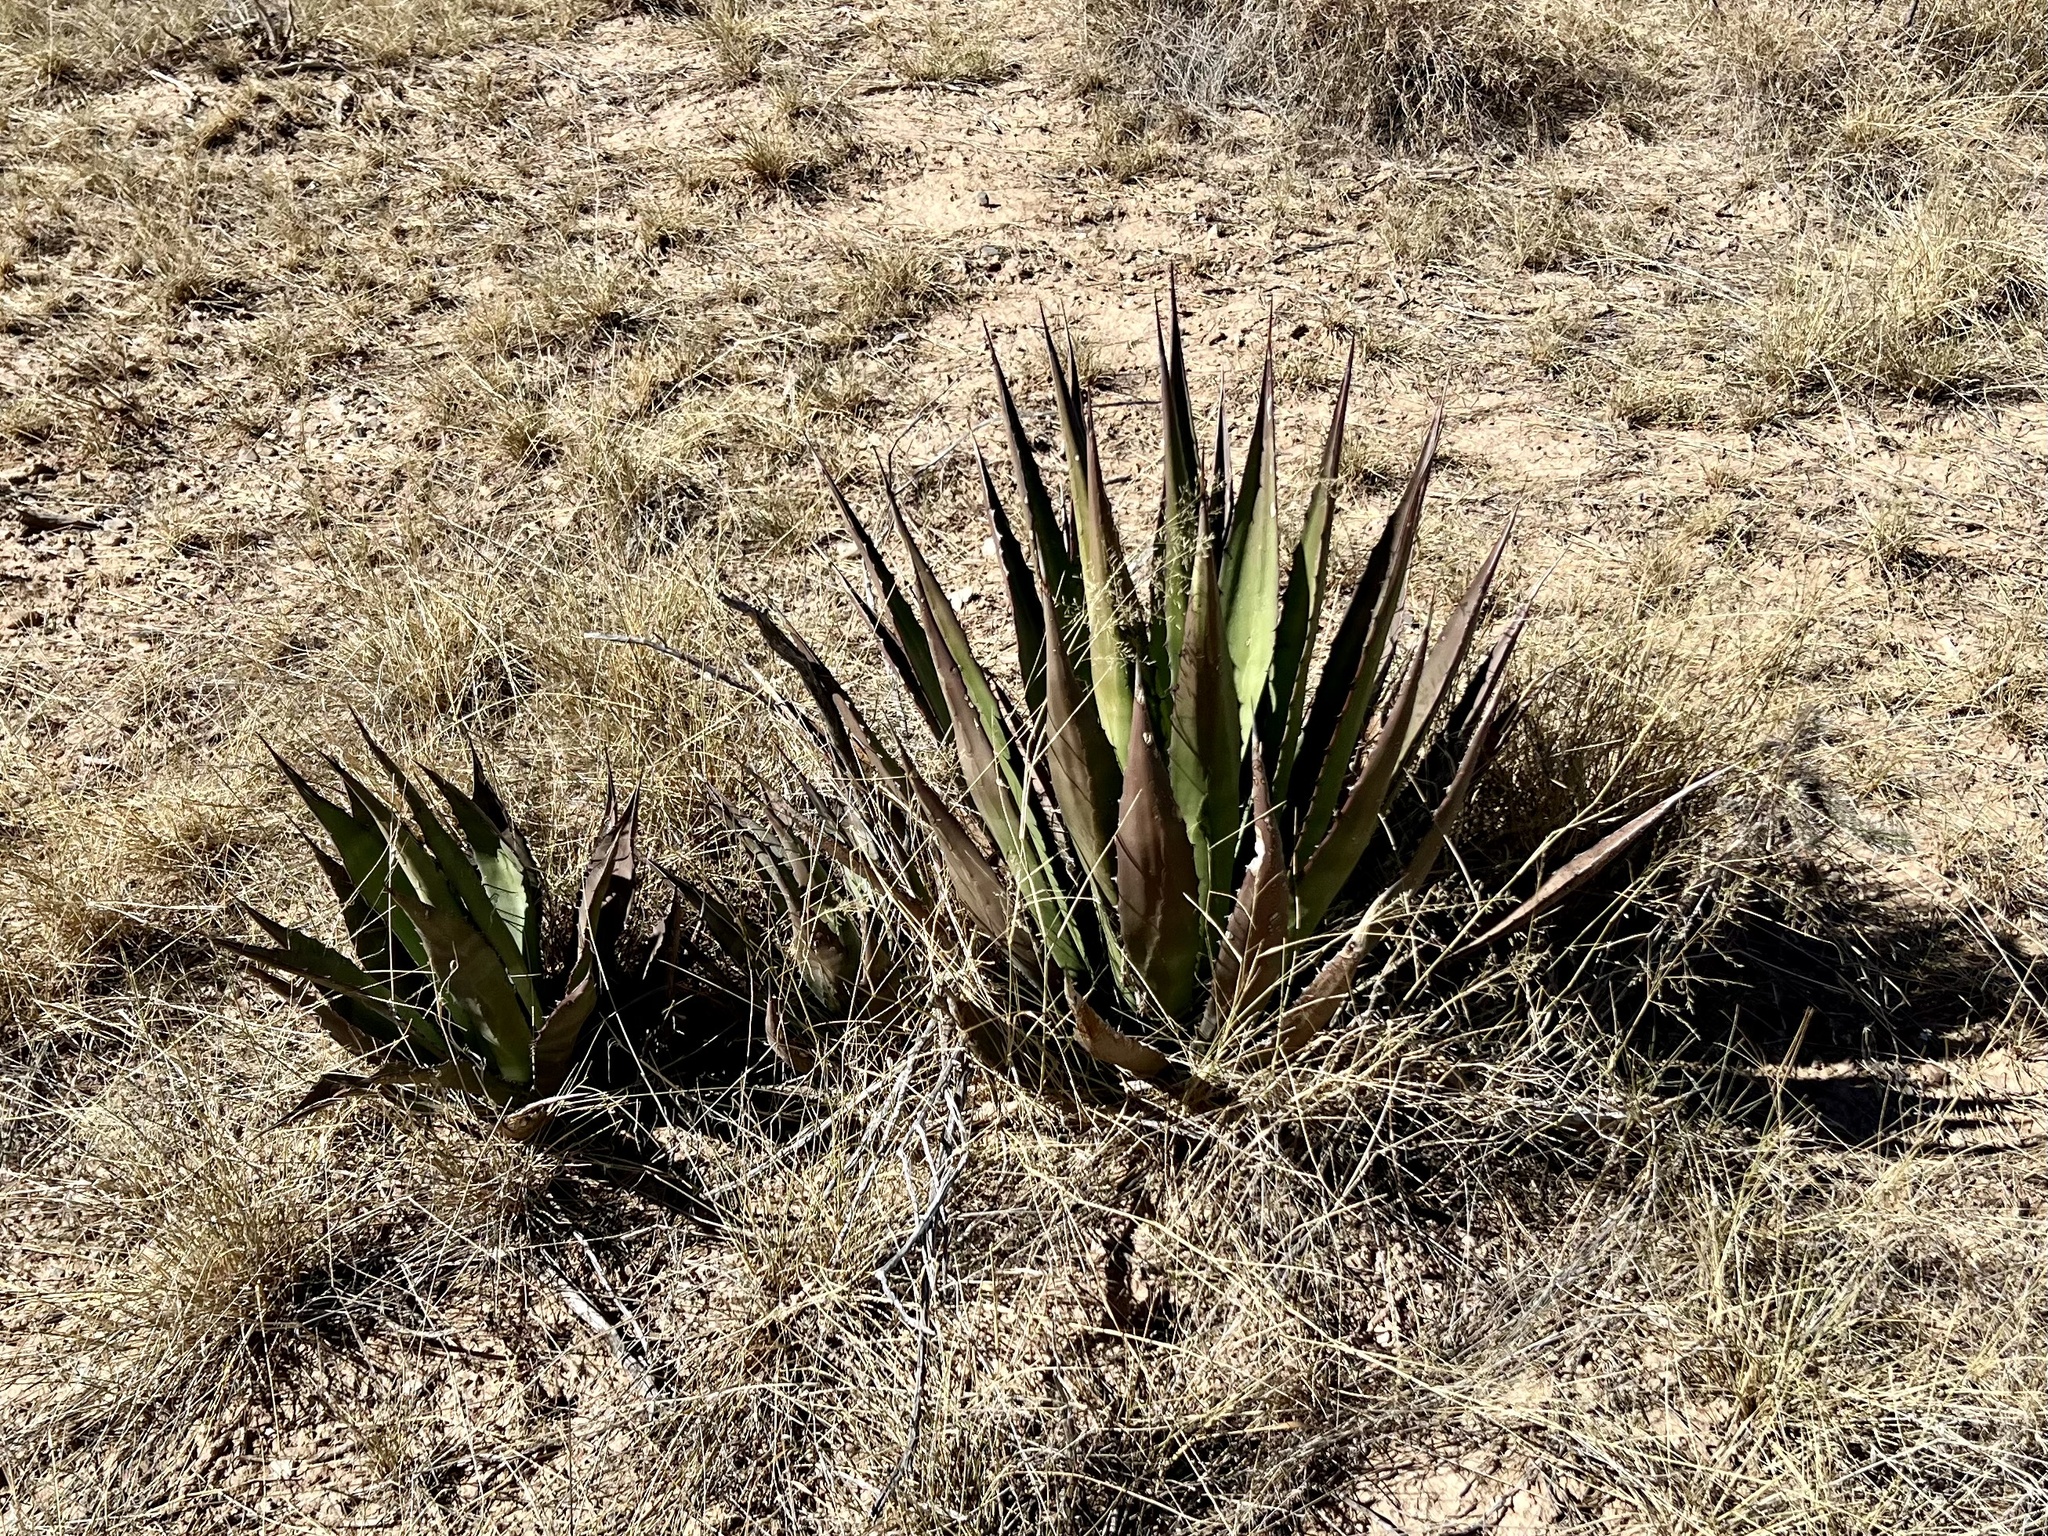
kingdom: Plantae
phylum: Tracheophyta
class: Liliopsida
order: Asparagales
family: Asparagaceae
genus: Agave
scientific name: Agave palmeri
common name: Palmer agave
